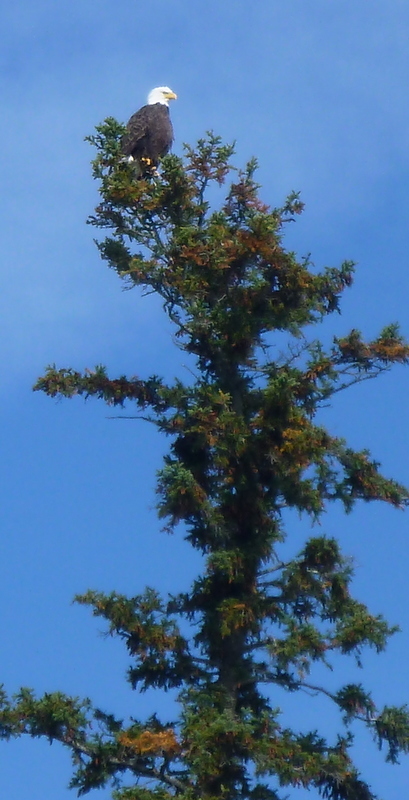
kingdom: Animalia
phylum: Chordata
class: Aves
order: Accipitriformes
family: Accipitridae
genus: Haliaeetus
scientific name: Haliaeetus leucocephalus
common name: Bald eagle
